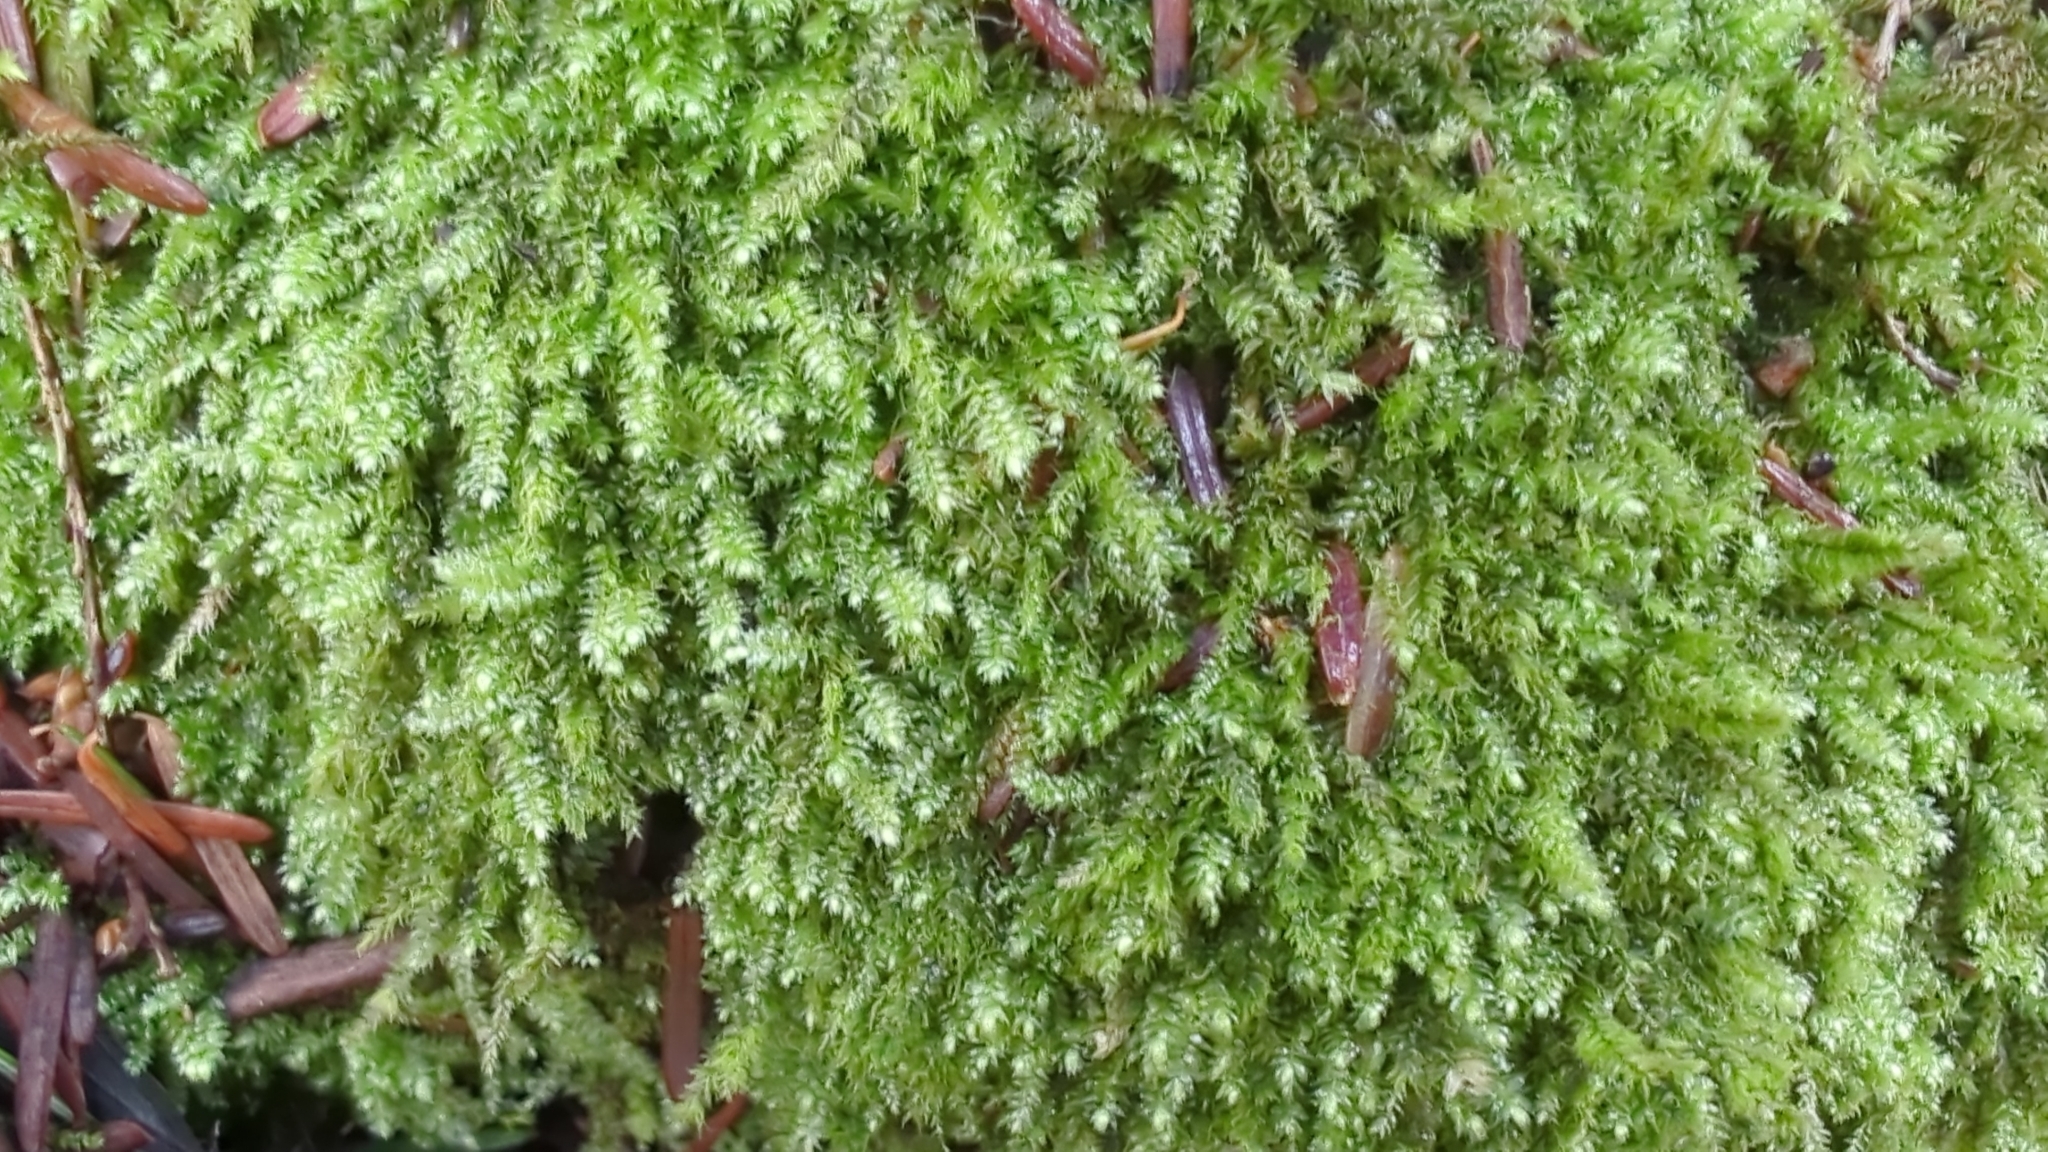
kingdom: Plantae
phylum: Bryophyta
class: Bryopsida
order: Hypnales
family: Plagiotheciaceae
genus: Pseudotaxiphyllum
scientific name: Pseudotaxiphyllum elegans
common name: Elegant silk moss
